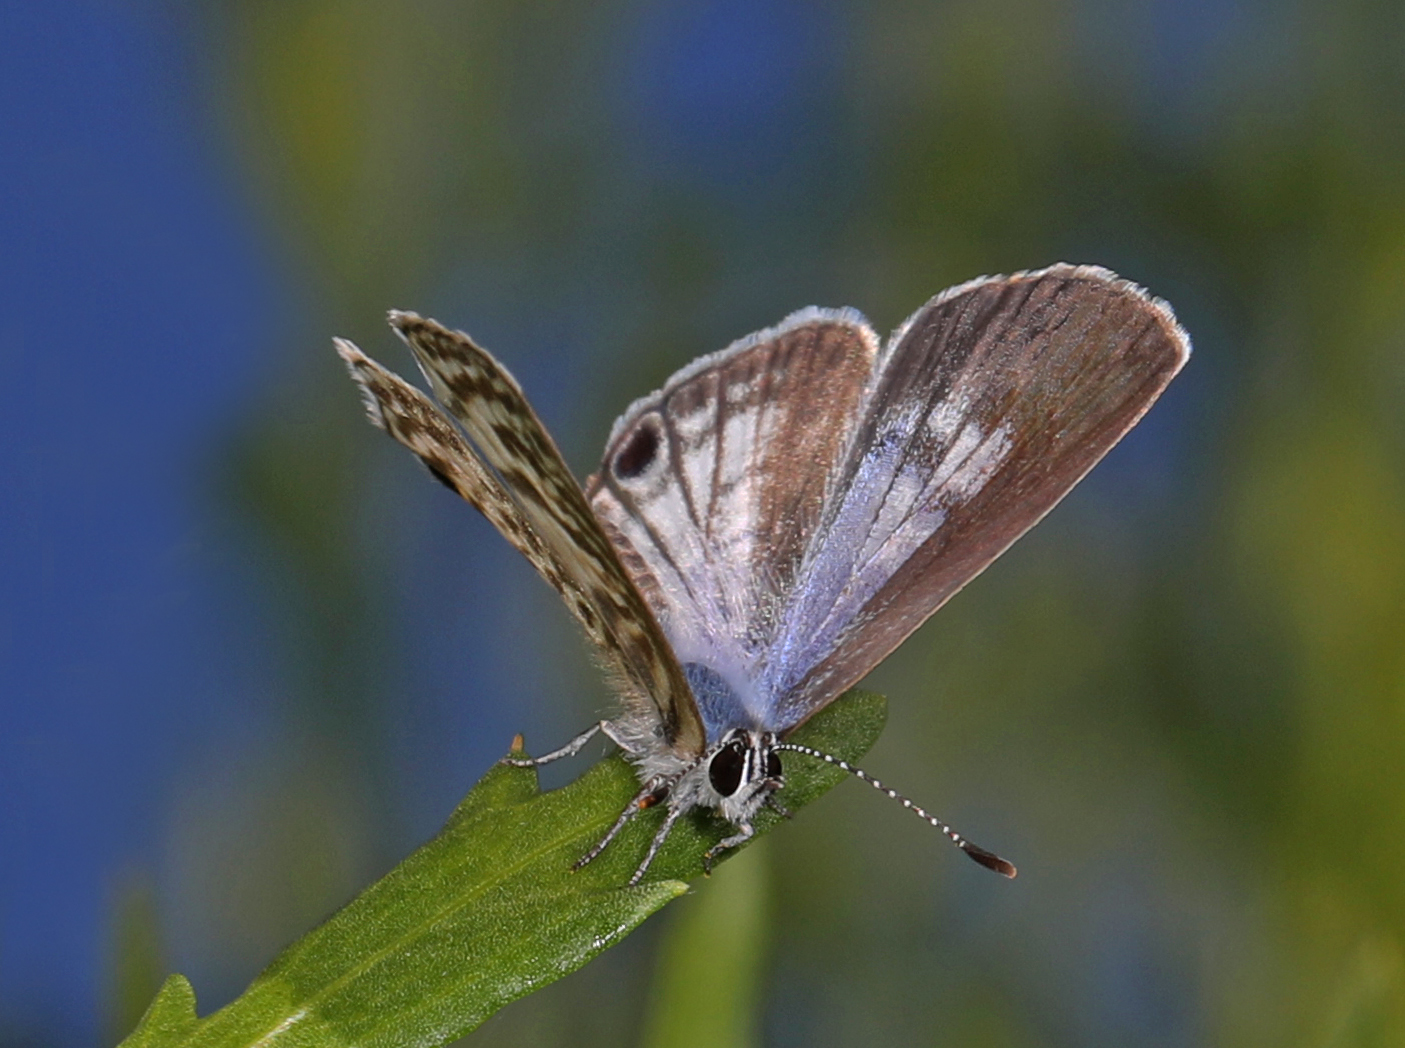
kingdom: Animalia
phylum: Arthropoda
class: Insecta
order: Lepidoptera
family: Lycaenidae
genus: Leptotes
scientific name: Leptotes cassius
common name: Cassius blue
